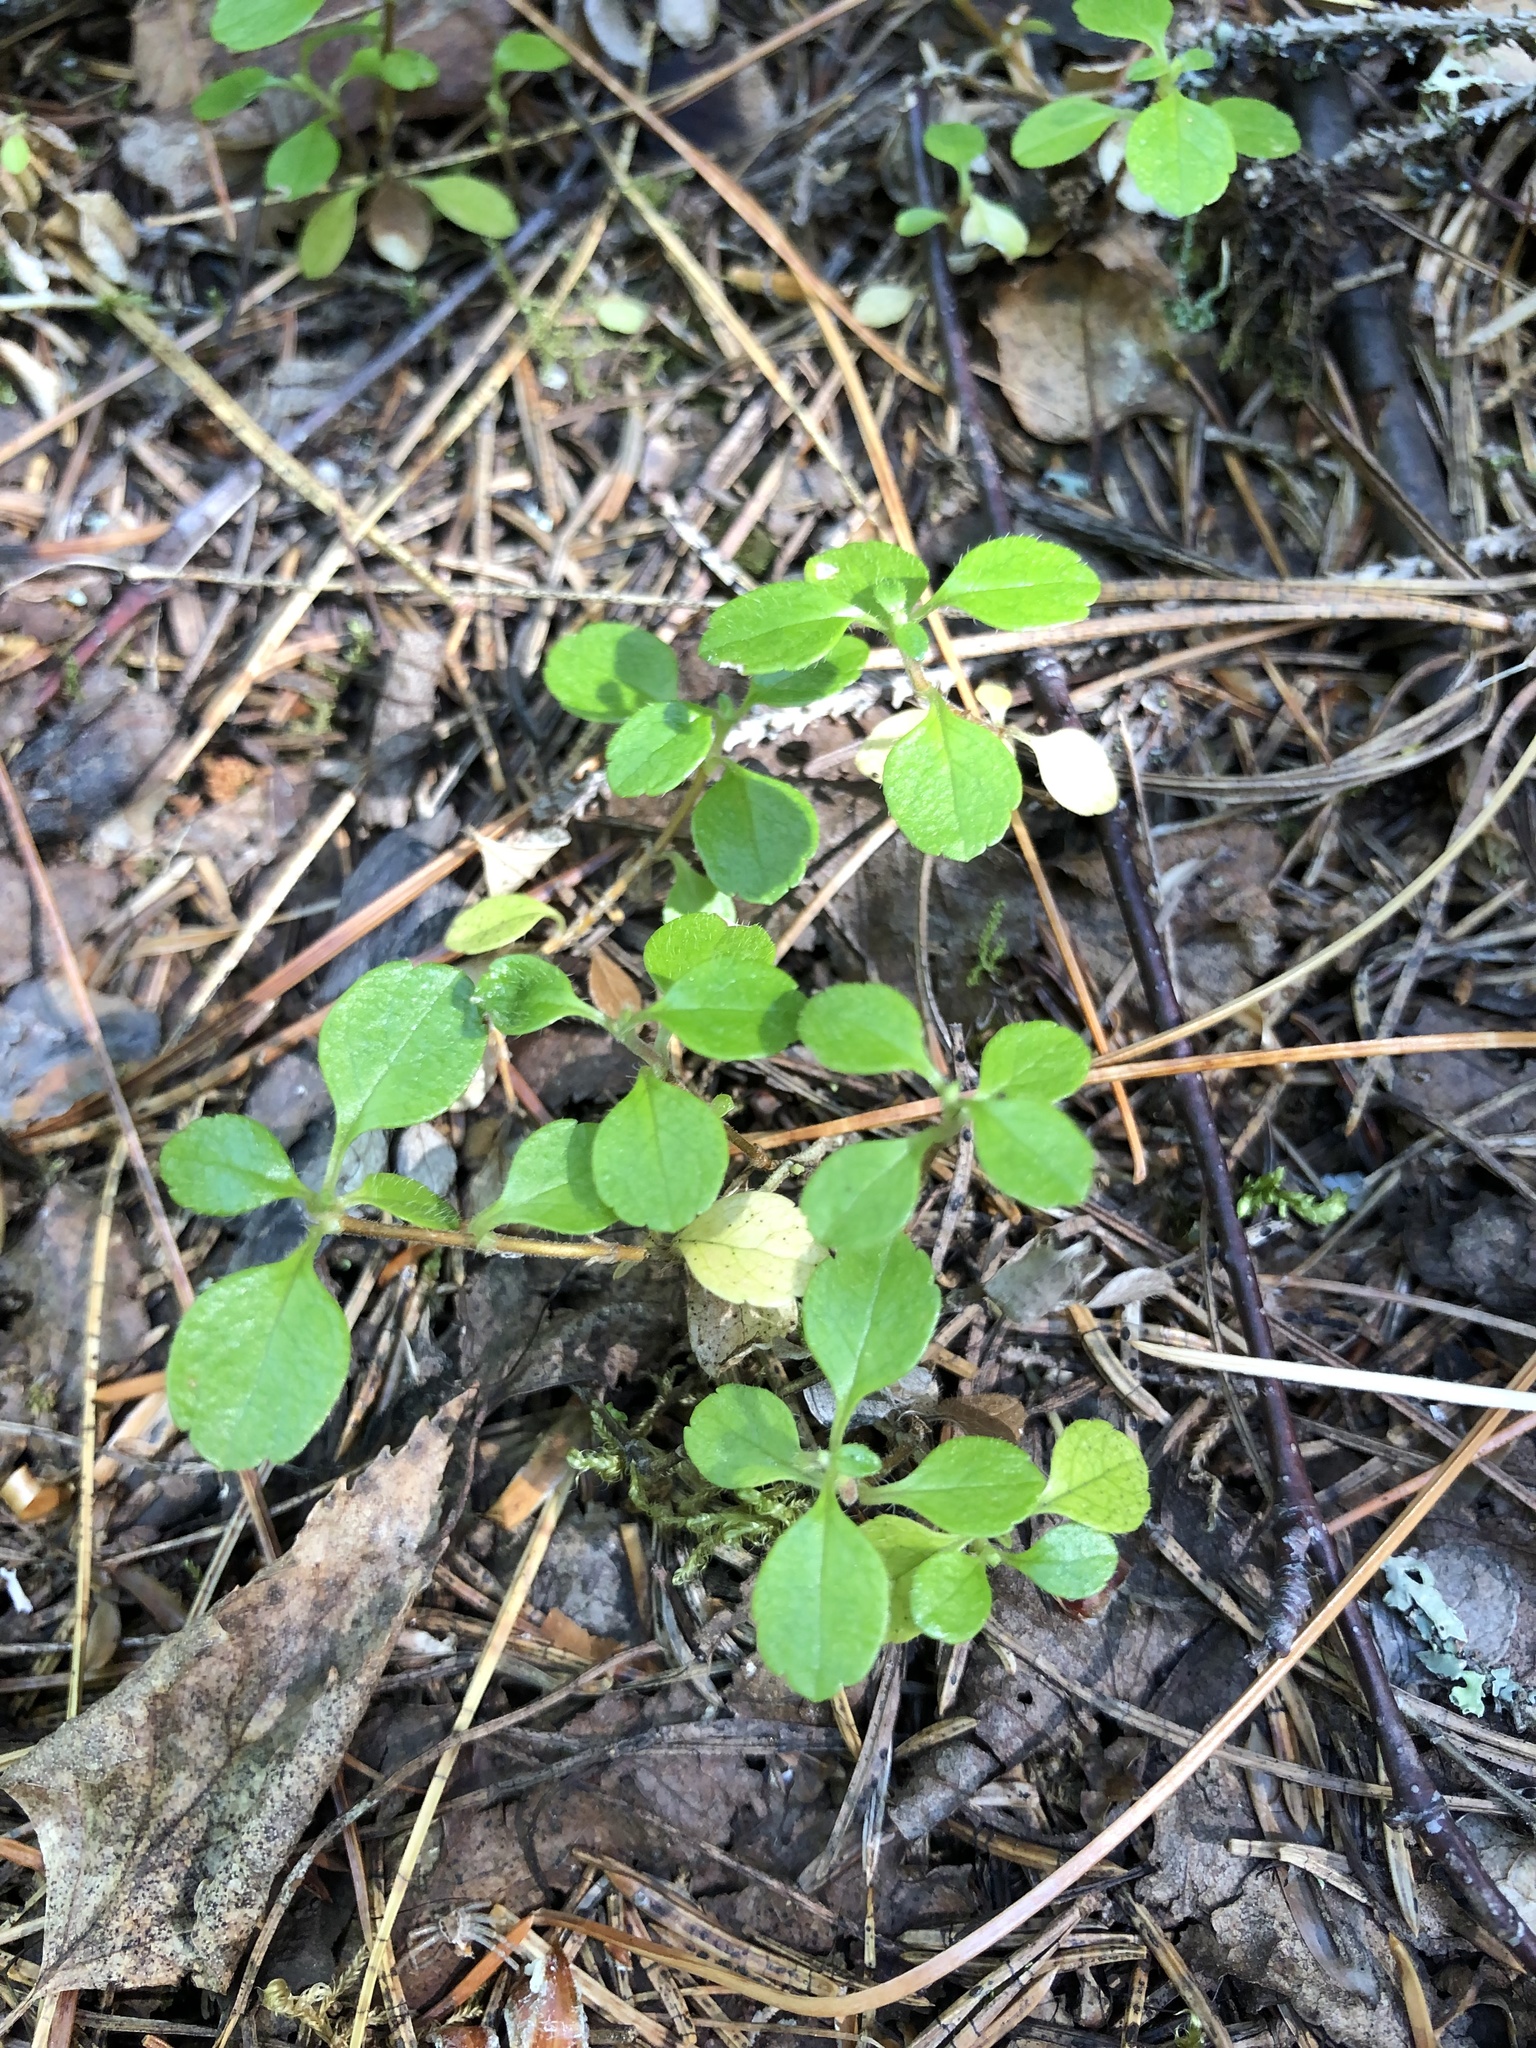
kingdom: Plantae
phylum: Tracheophyta
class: Magnoliopsida
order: Dipsacales
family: Caprifoliaceae
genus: Linnaea
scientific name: Linnaea borealis
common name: Twinflower
